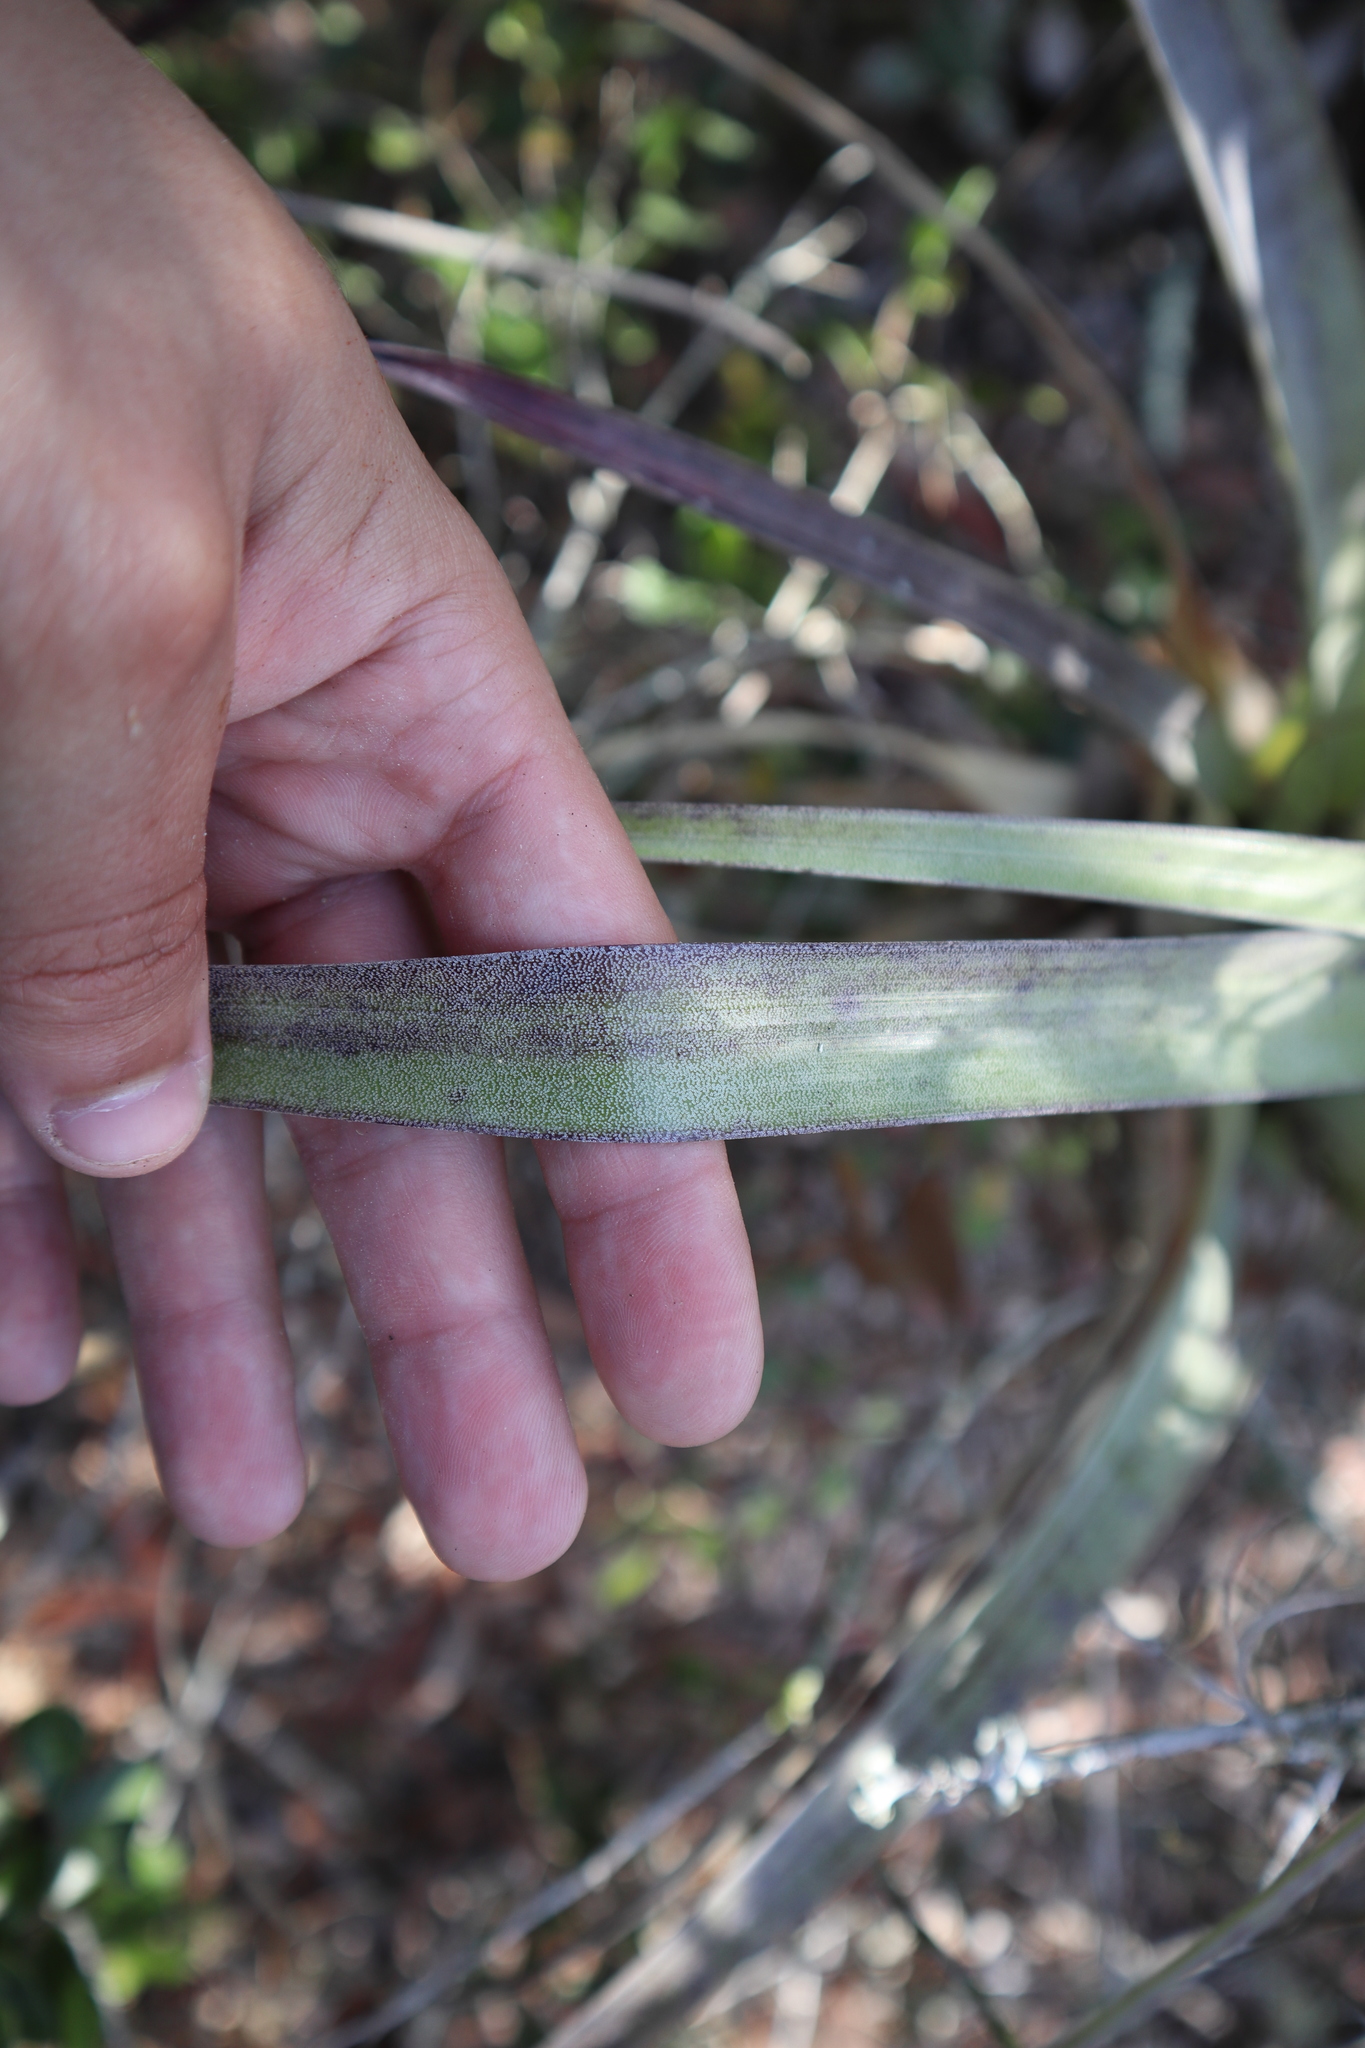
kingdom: Plantae
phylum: Tracheophyta
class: Liliopsida
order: Poales
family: Bromeliaceae
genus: Tillandsia
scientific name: Tillandsia utriculata
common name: Wild pine
